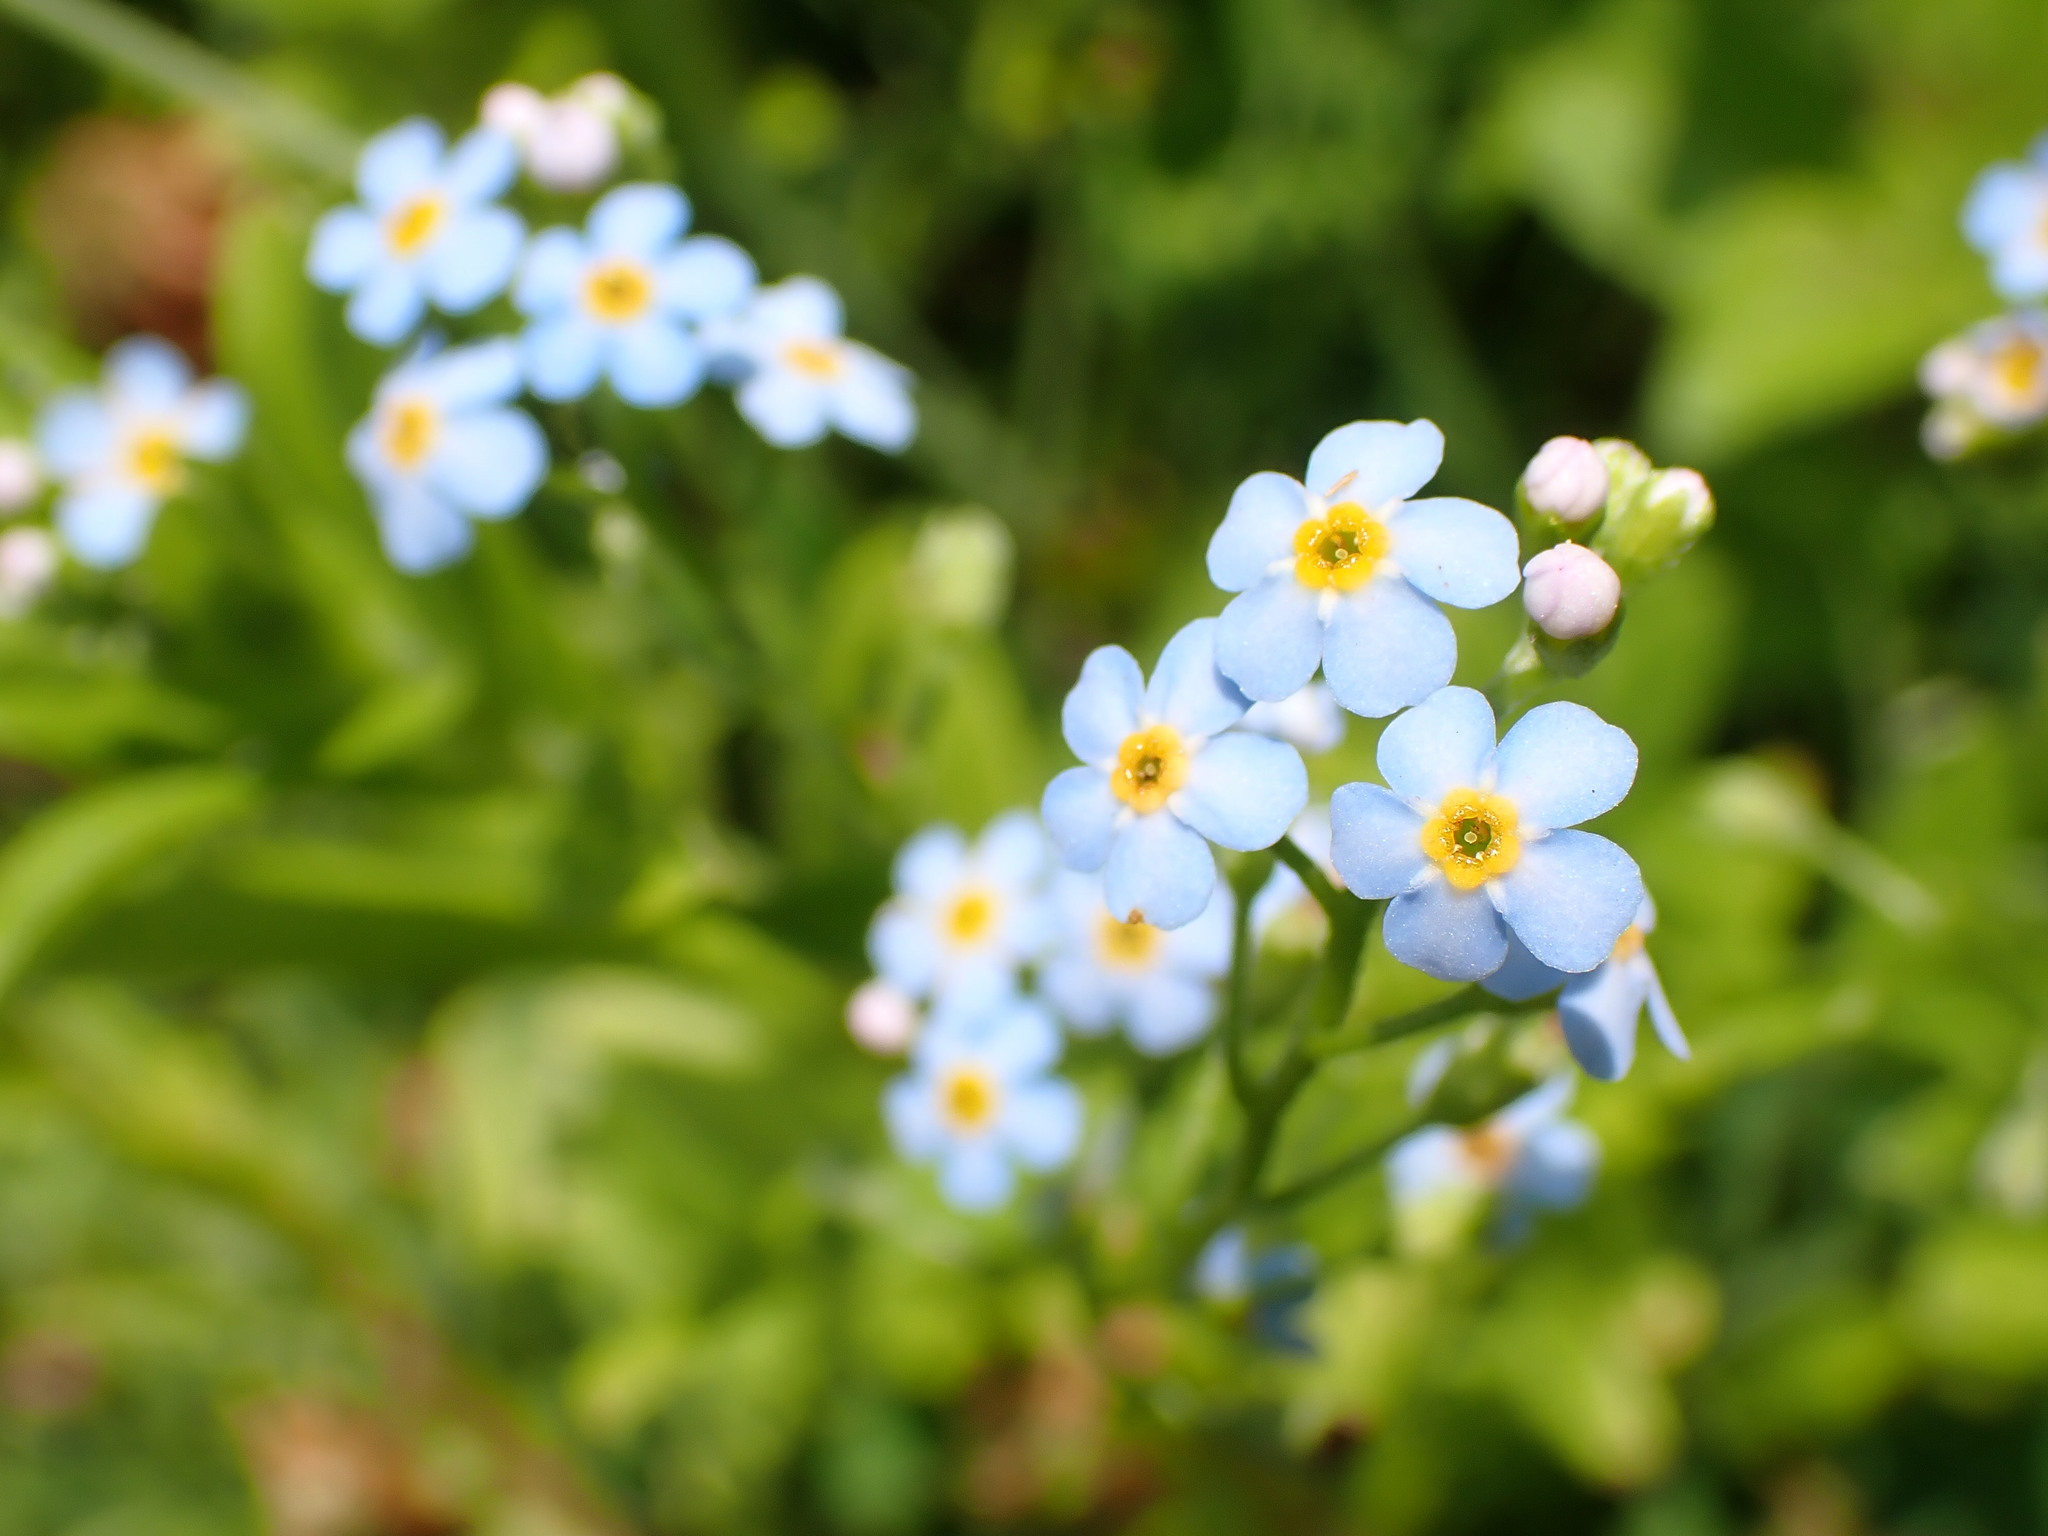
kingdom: Plantae
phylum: Tracheophyta
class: Magnoliopsida
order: Boraginales
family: Boraginaceae
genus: Myosotis
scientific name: Myosotis scorpioides
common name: Water forget-me-not
